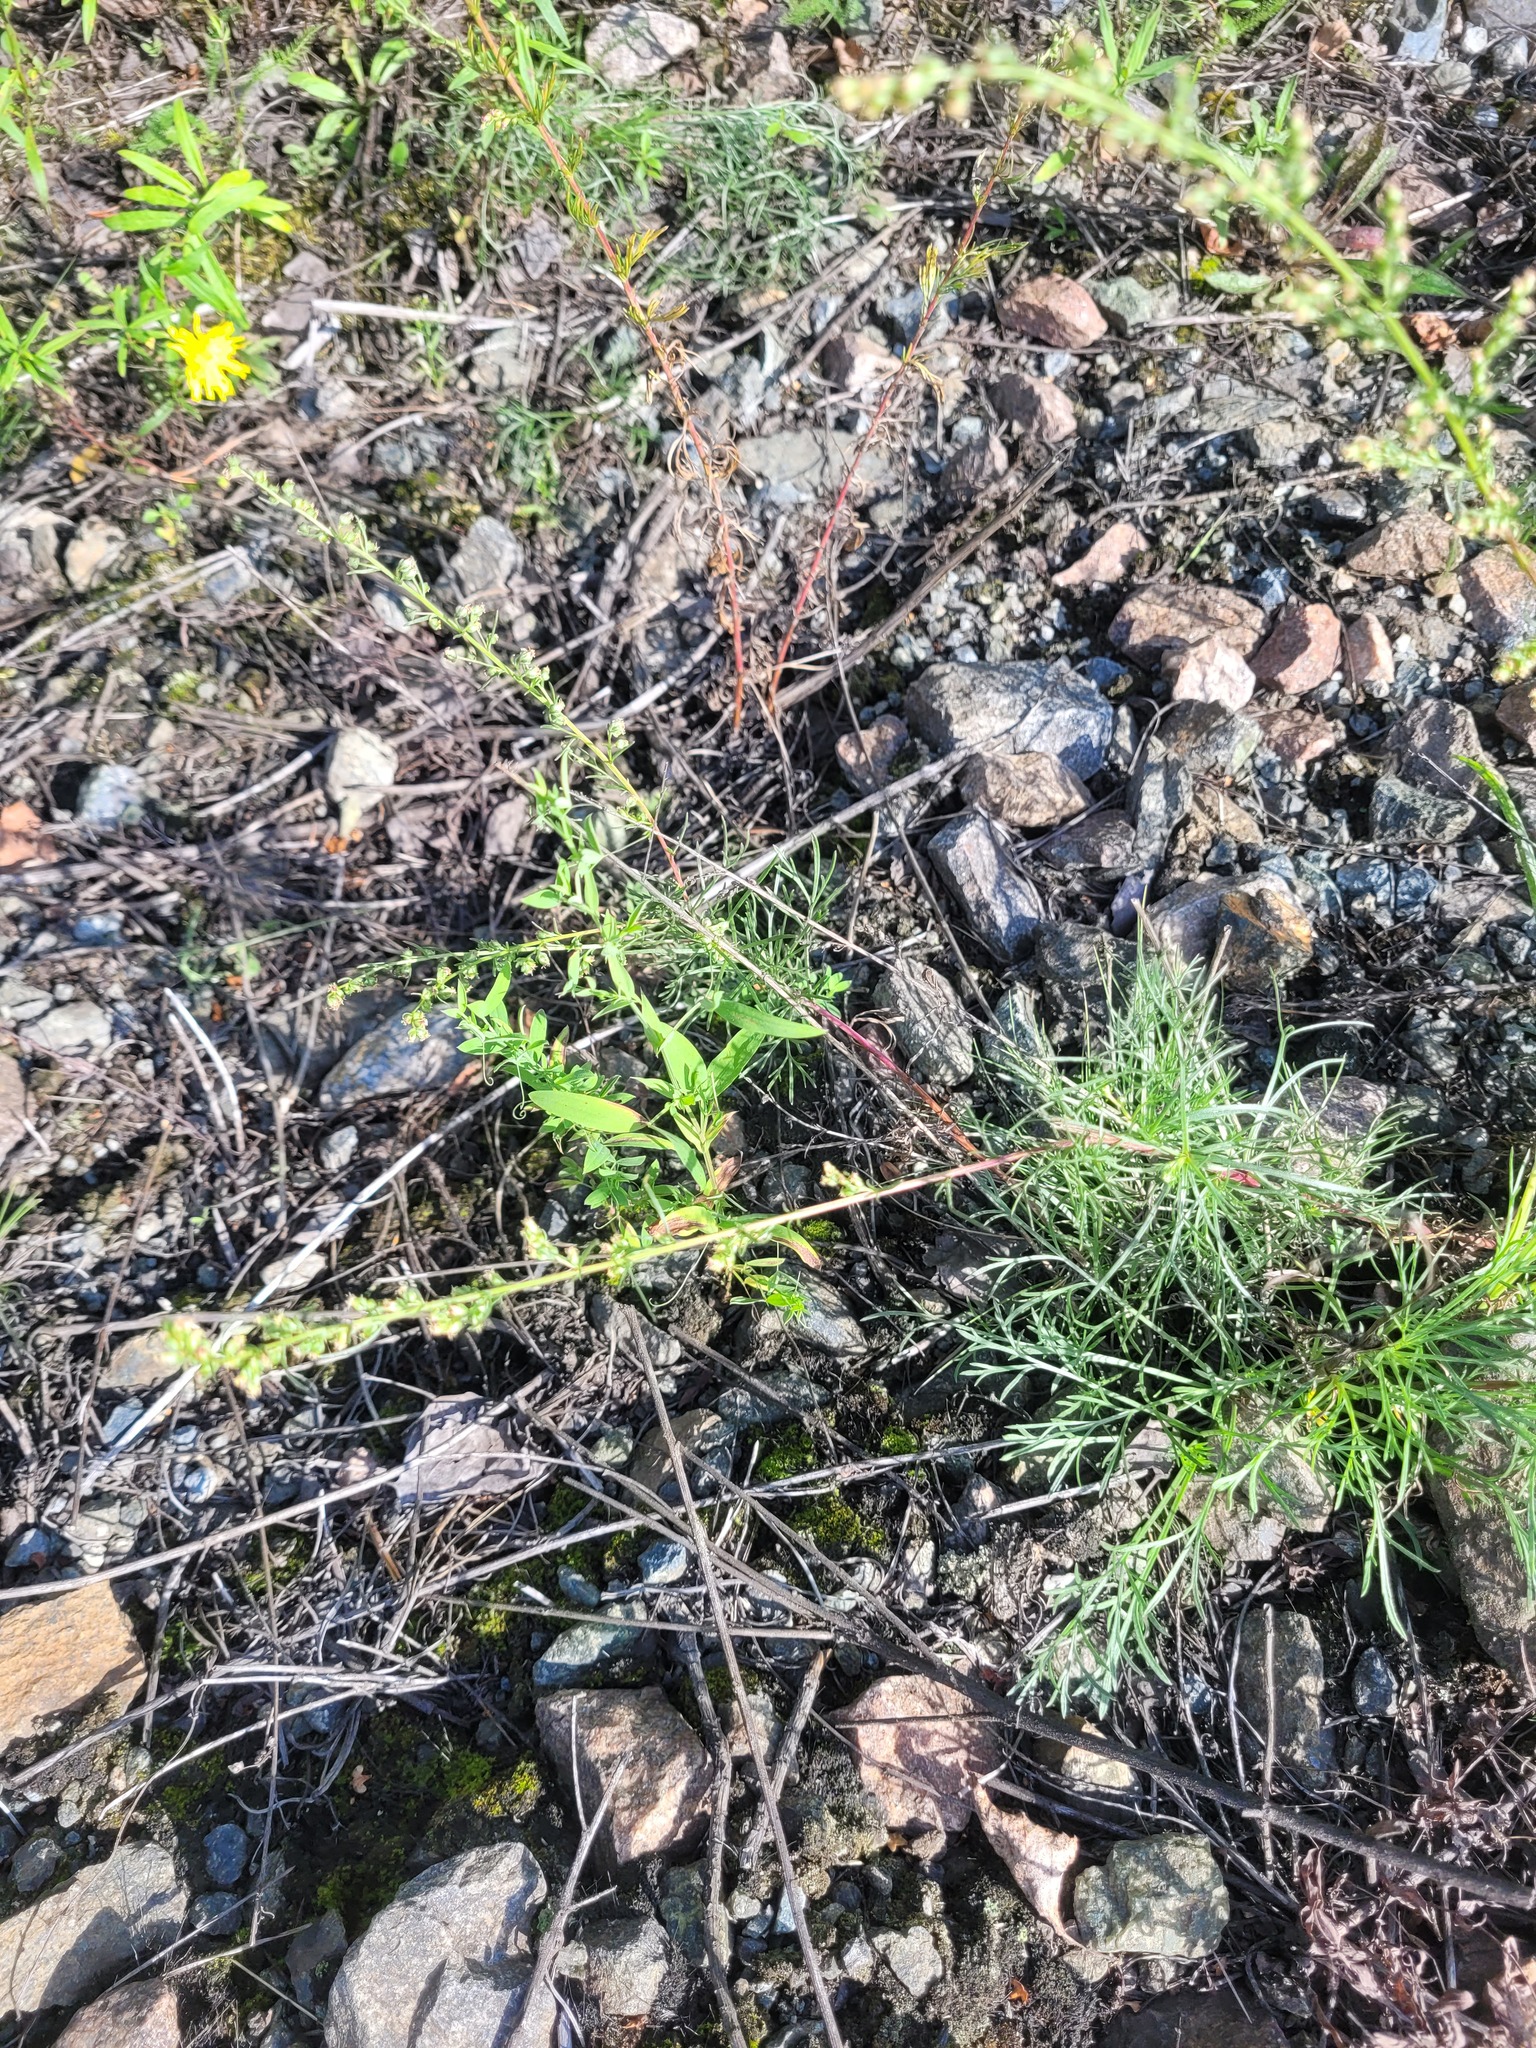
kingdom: Plantae
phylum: Tracheophyta
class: Magnoliopsida
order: Fabales
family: Fabaceae
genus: Lathyrus
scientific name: Lathyrus pratensis
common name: Meadow vetchling
